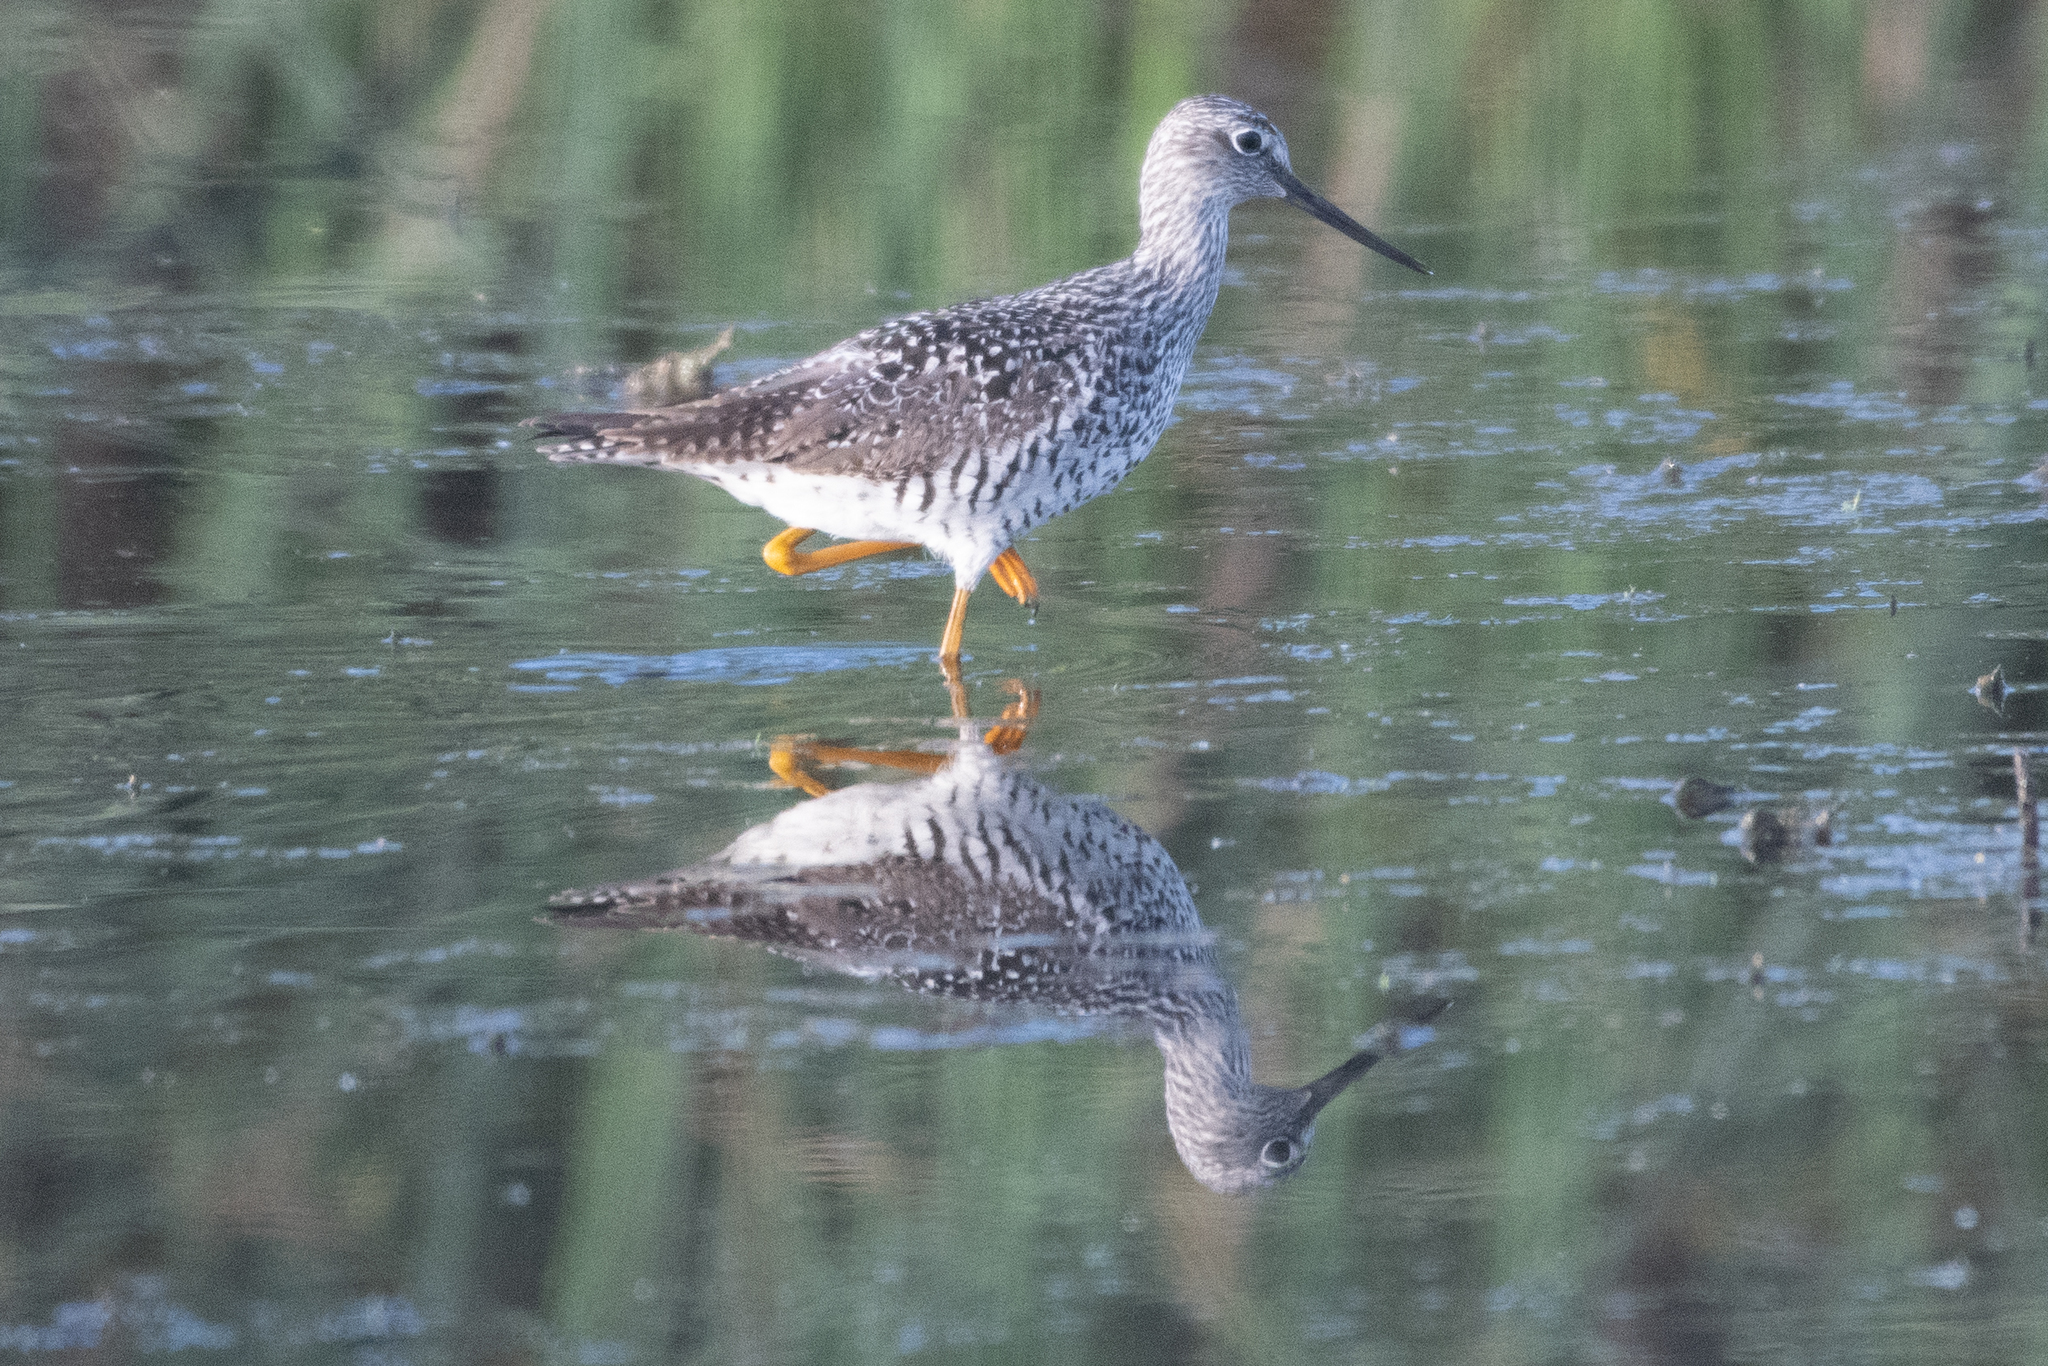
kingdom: Animalia
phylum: Chordata
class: Aves
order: Charadriiformes
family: Scolopacidae
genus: Tringa
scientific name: Tringa melanoleuca
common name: Greater yellowlegs
